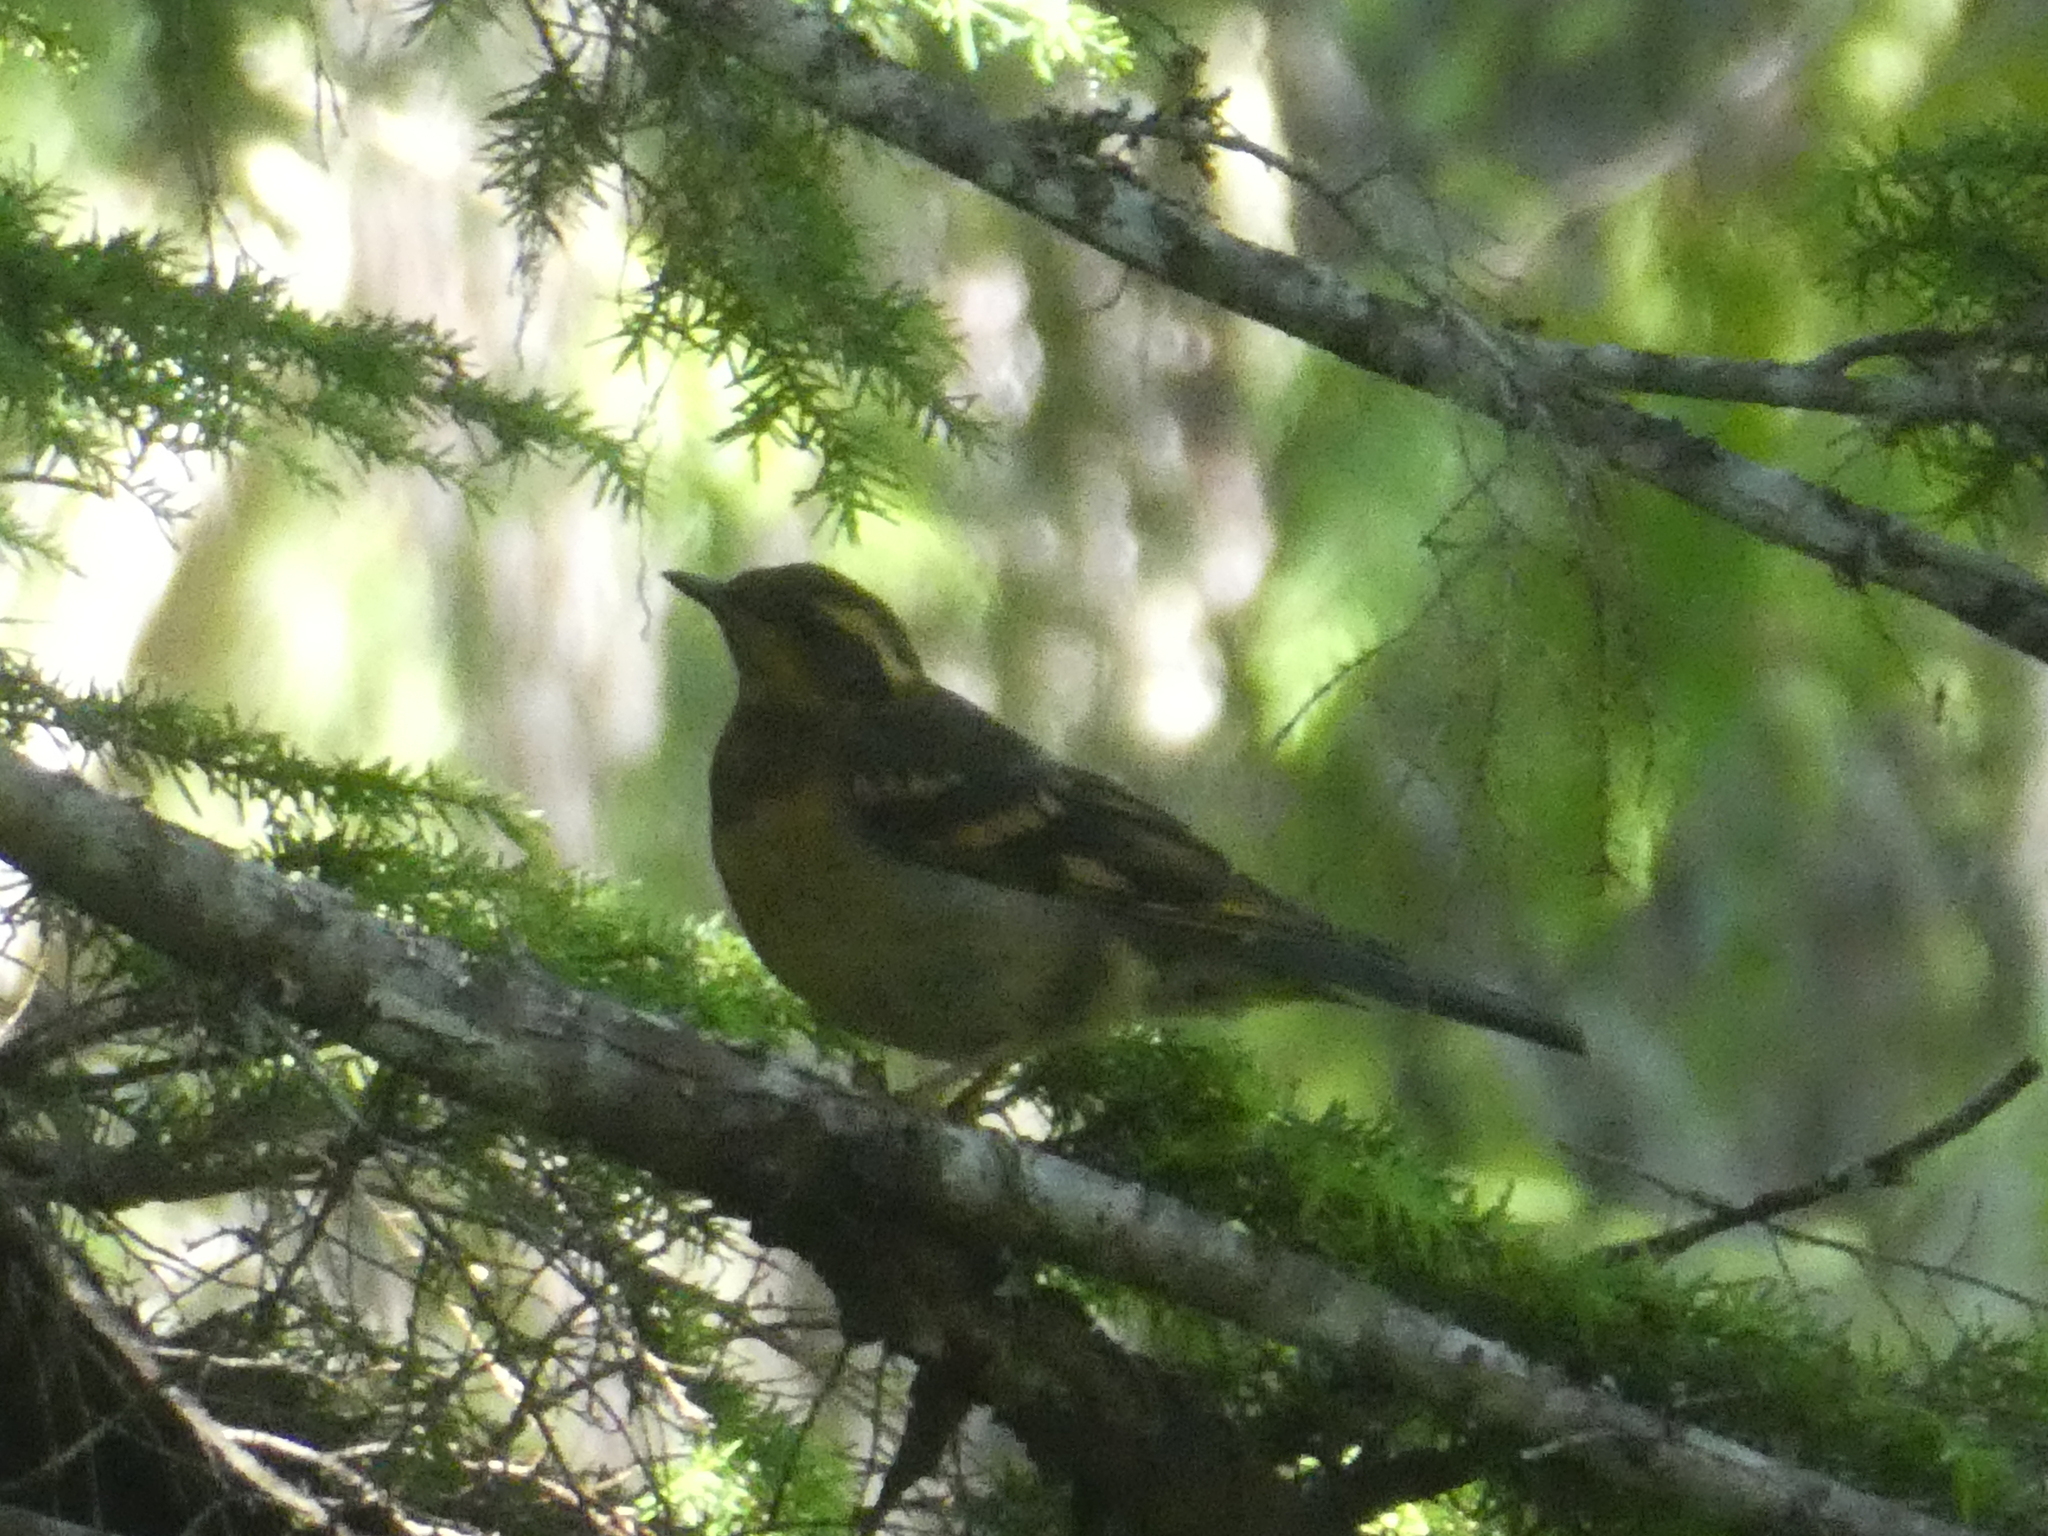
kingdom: Animalia
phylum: Chordata
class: Aves
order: Passeriformes
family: Turdidae
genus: Ixoreus
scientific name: Ixoreus naevius
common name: Varied thrush
